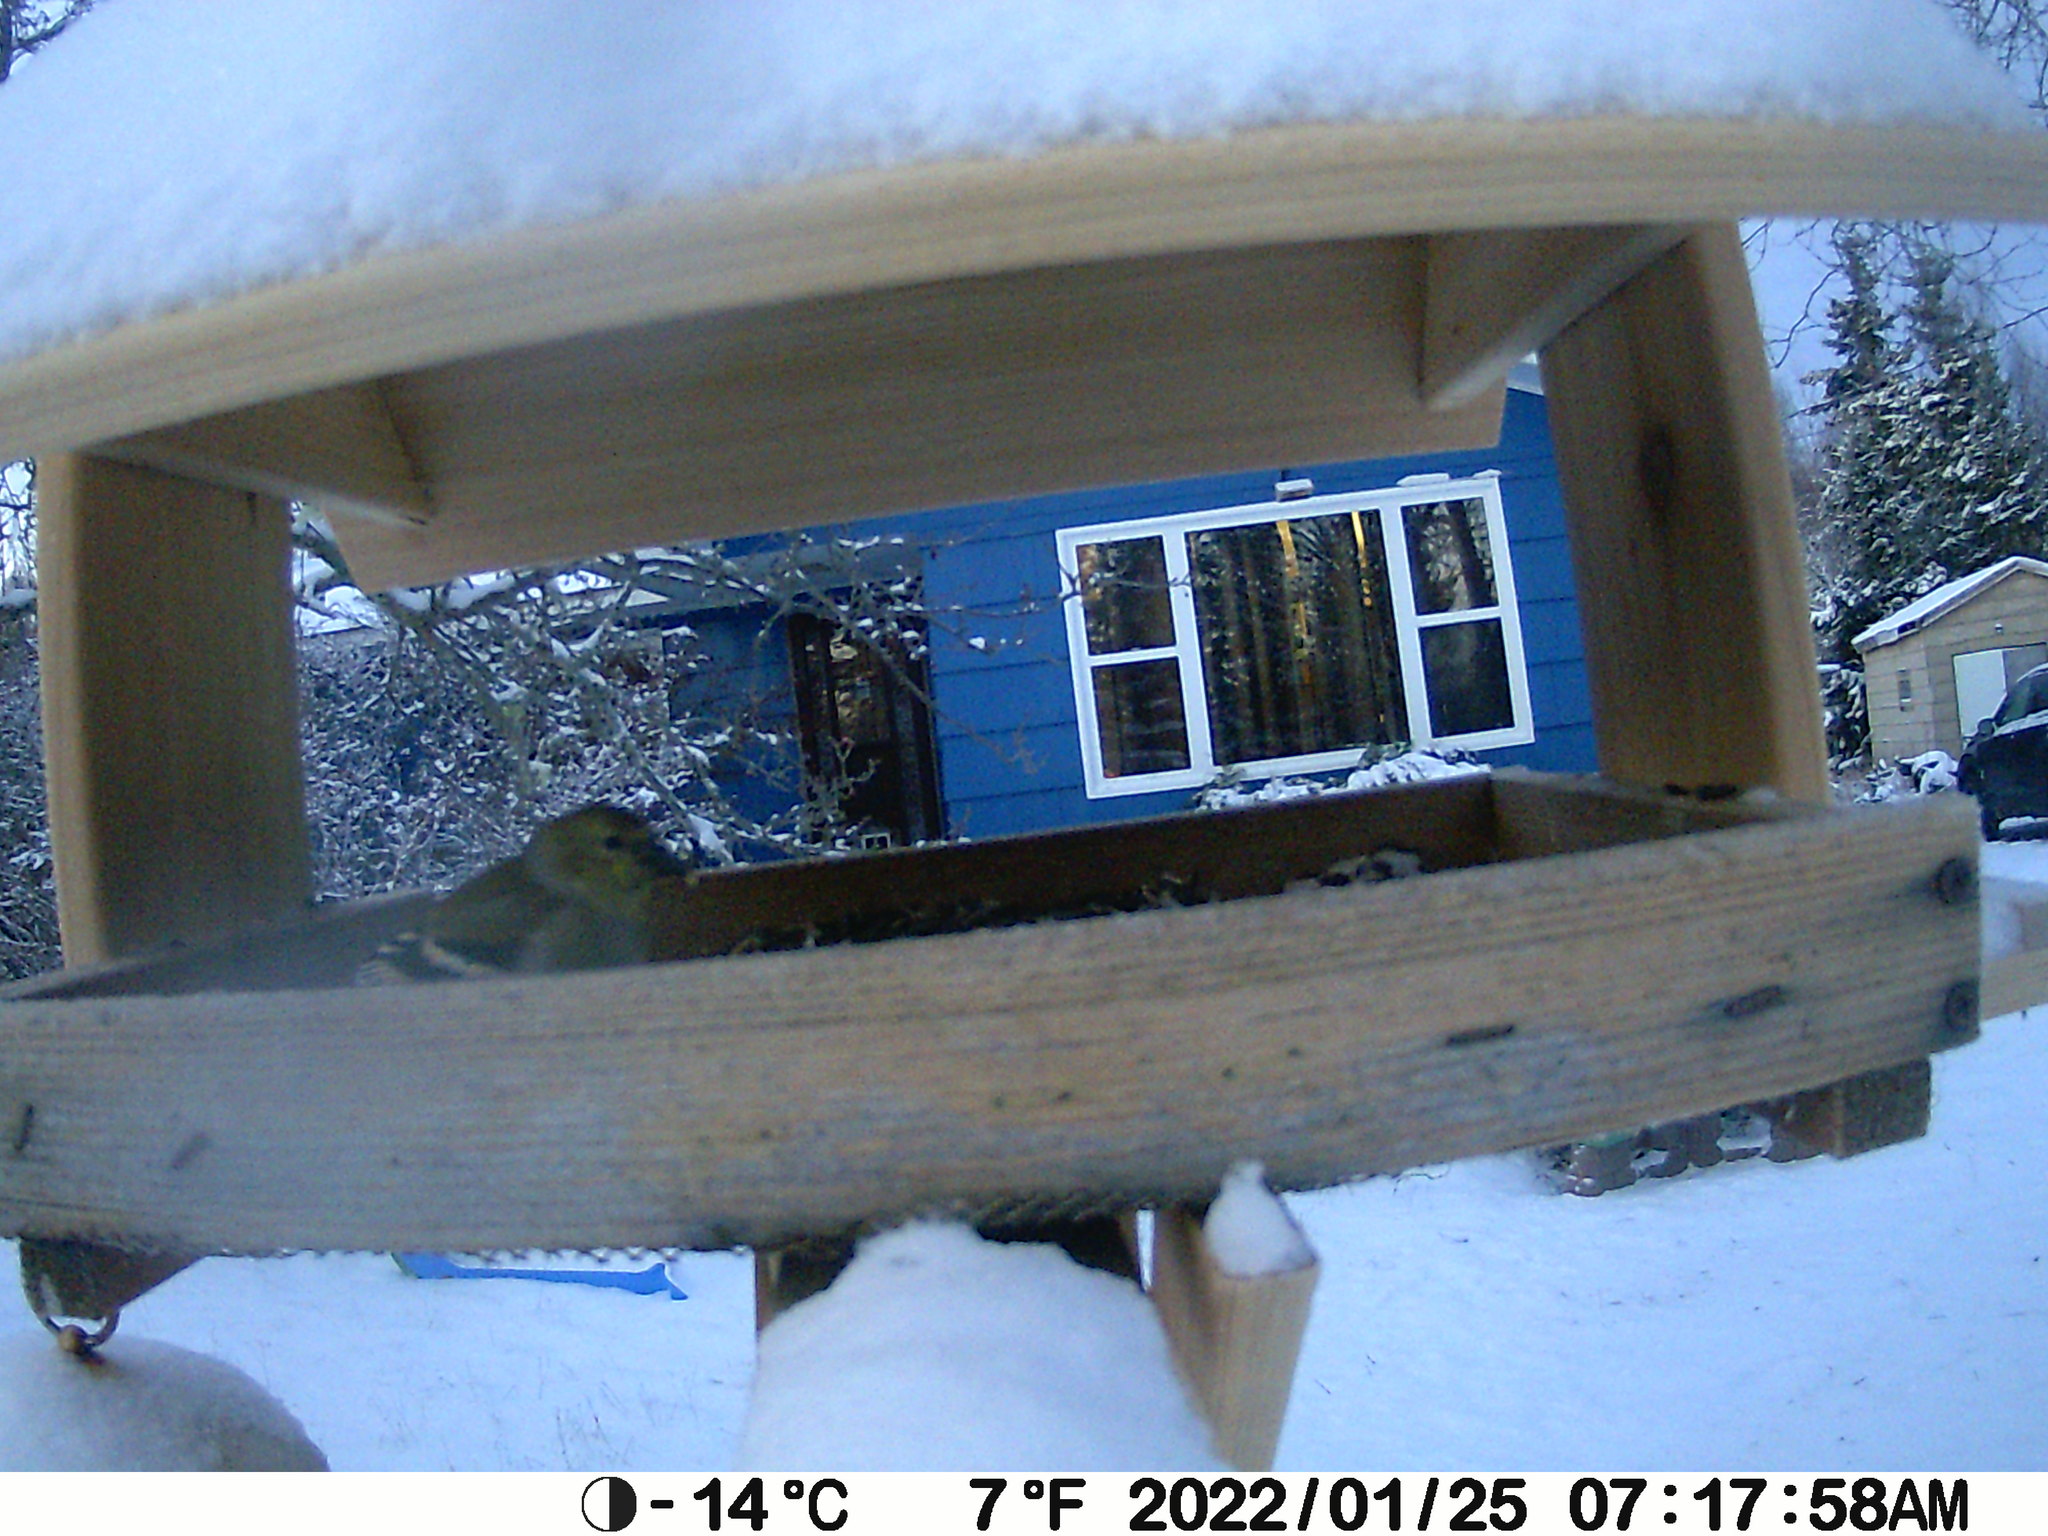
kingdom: Animalia
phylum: Chordata
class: Aves
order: Passeriformes
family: Fringillidae
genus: Spinus
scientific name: Spinus tristis
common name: American goldfinch
